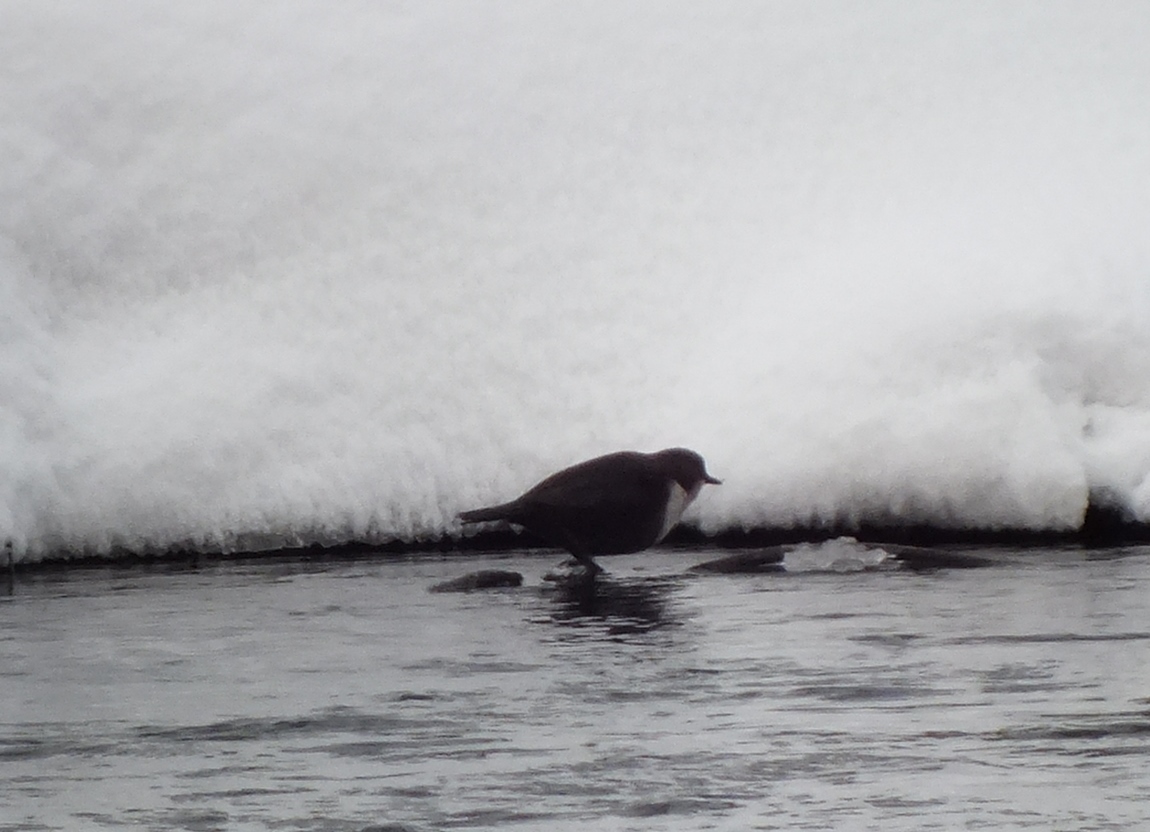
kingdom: Animalia
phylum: Chordata
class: Aves
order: Passeriformes
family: Cinclidae
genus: Cinclus
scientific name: Cinclus cinclus
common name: White-throated dipper
